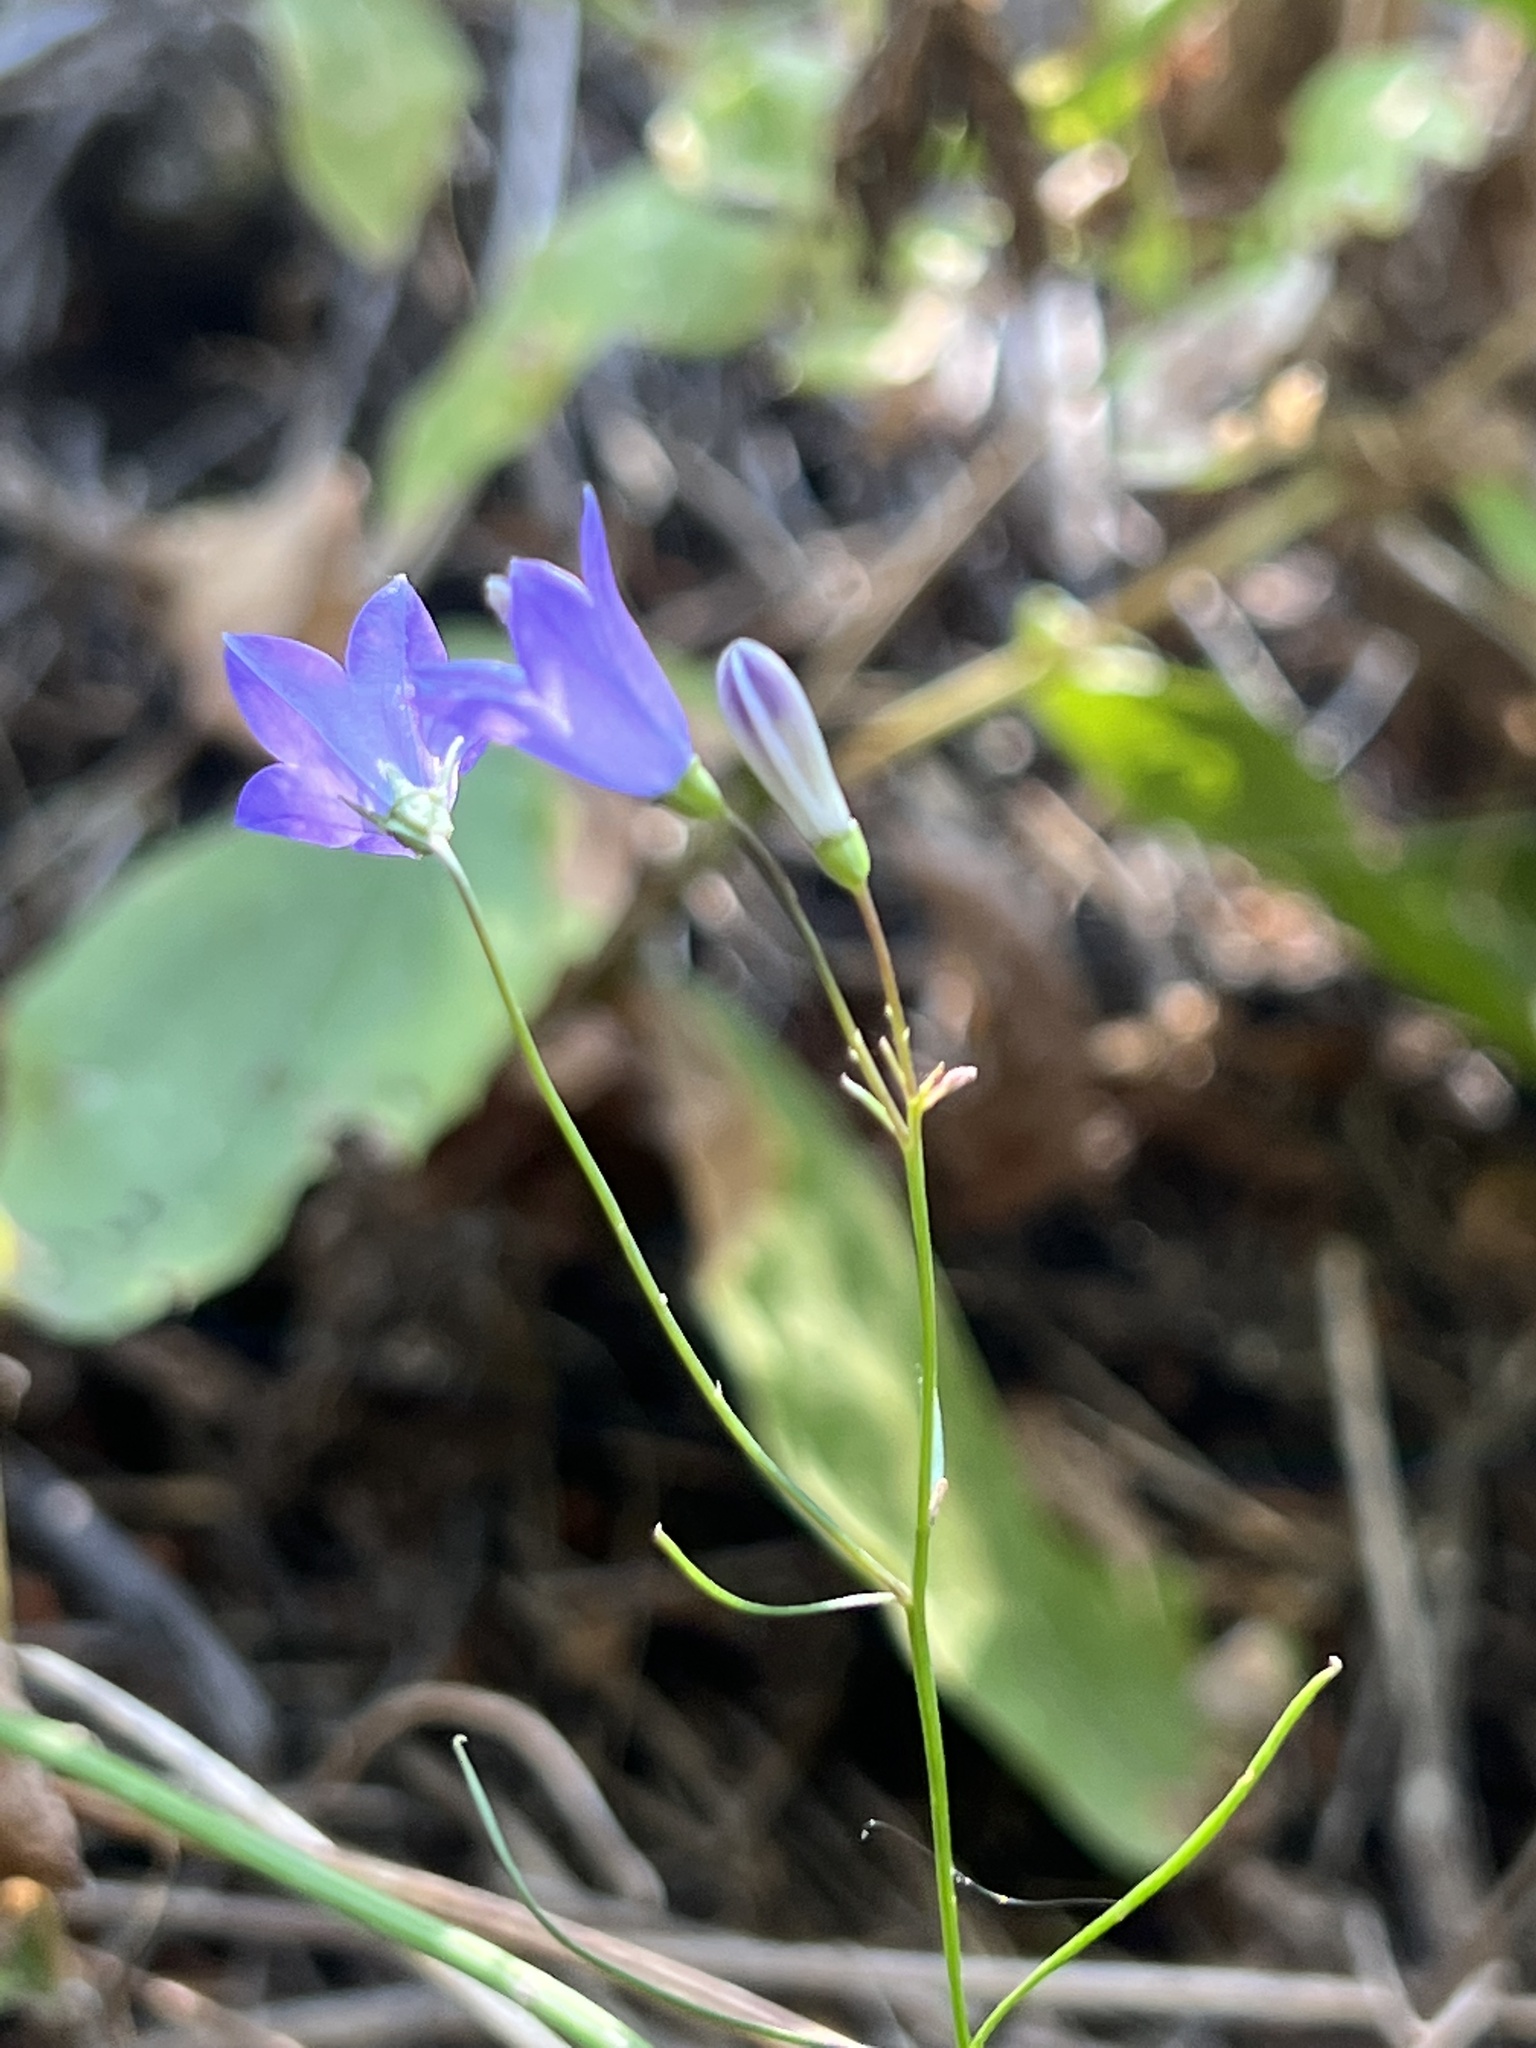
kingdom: Plantae
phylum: Tracheophyta
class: Magnoliopsida
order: Asterales
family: Campanulaceae
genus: Campanula
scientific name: Campanula
